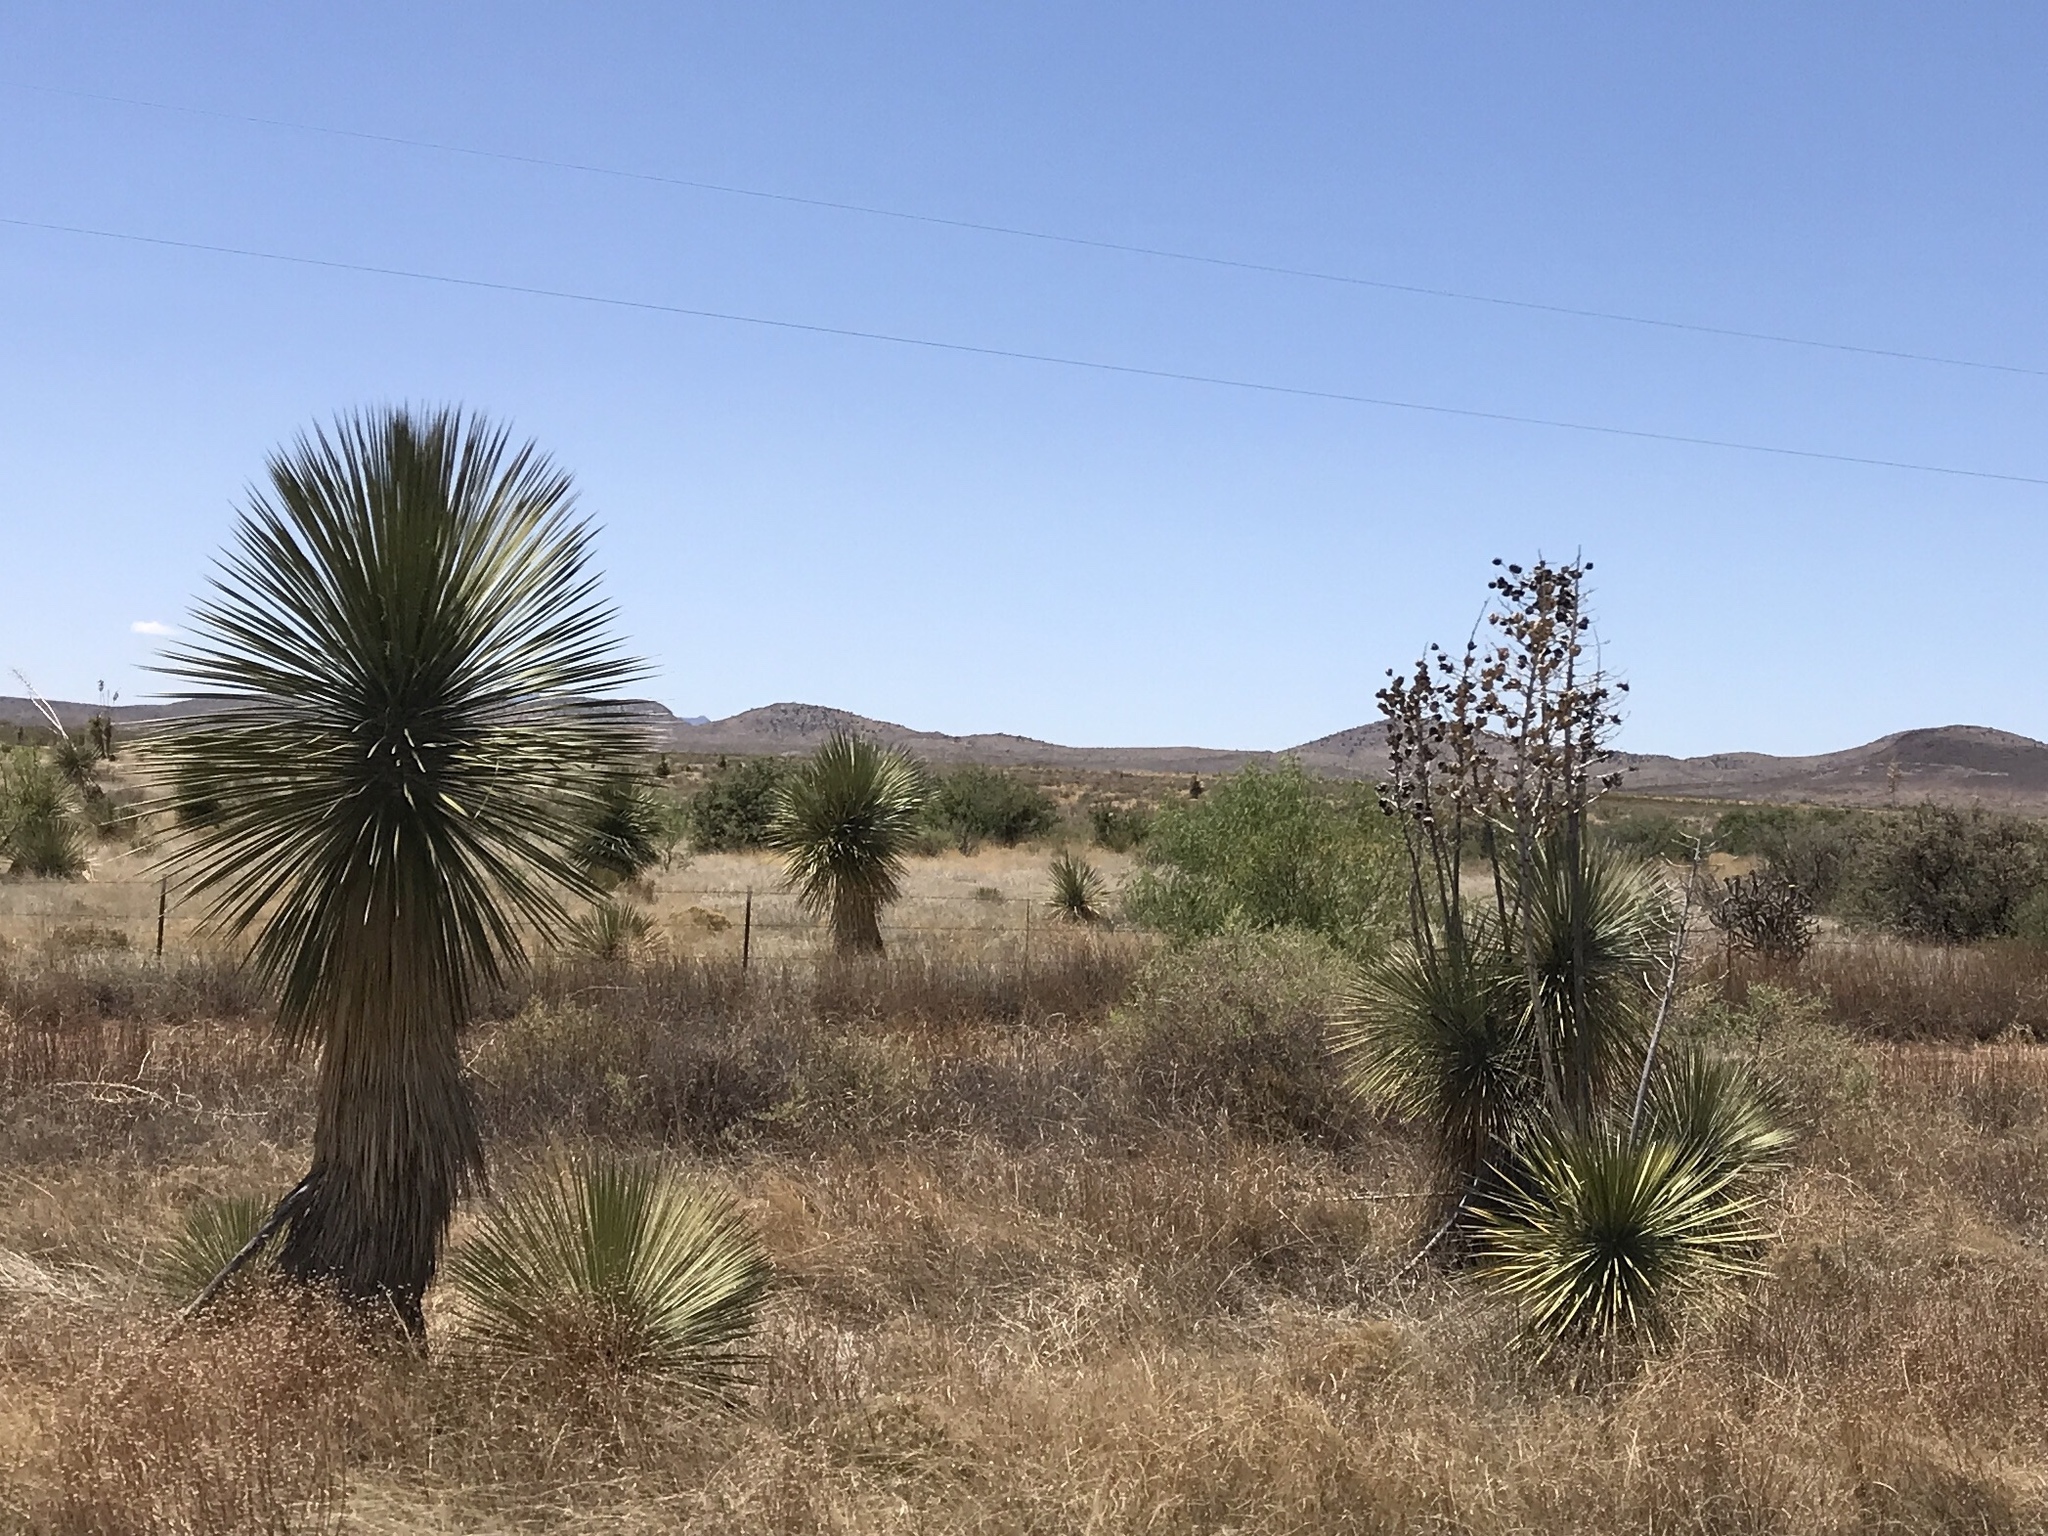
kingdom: Plantae
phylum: Tracheophyta
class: Liliopsida
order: Asparagales
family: Asparagaceae
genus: Yucca
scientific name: Yucca elata
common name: Palmella
